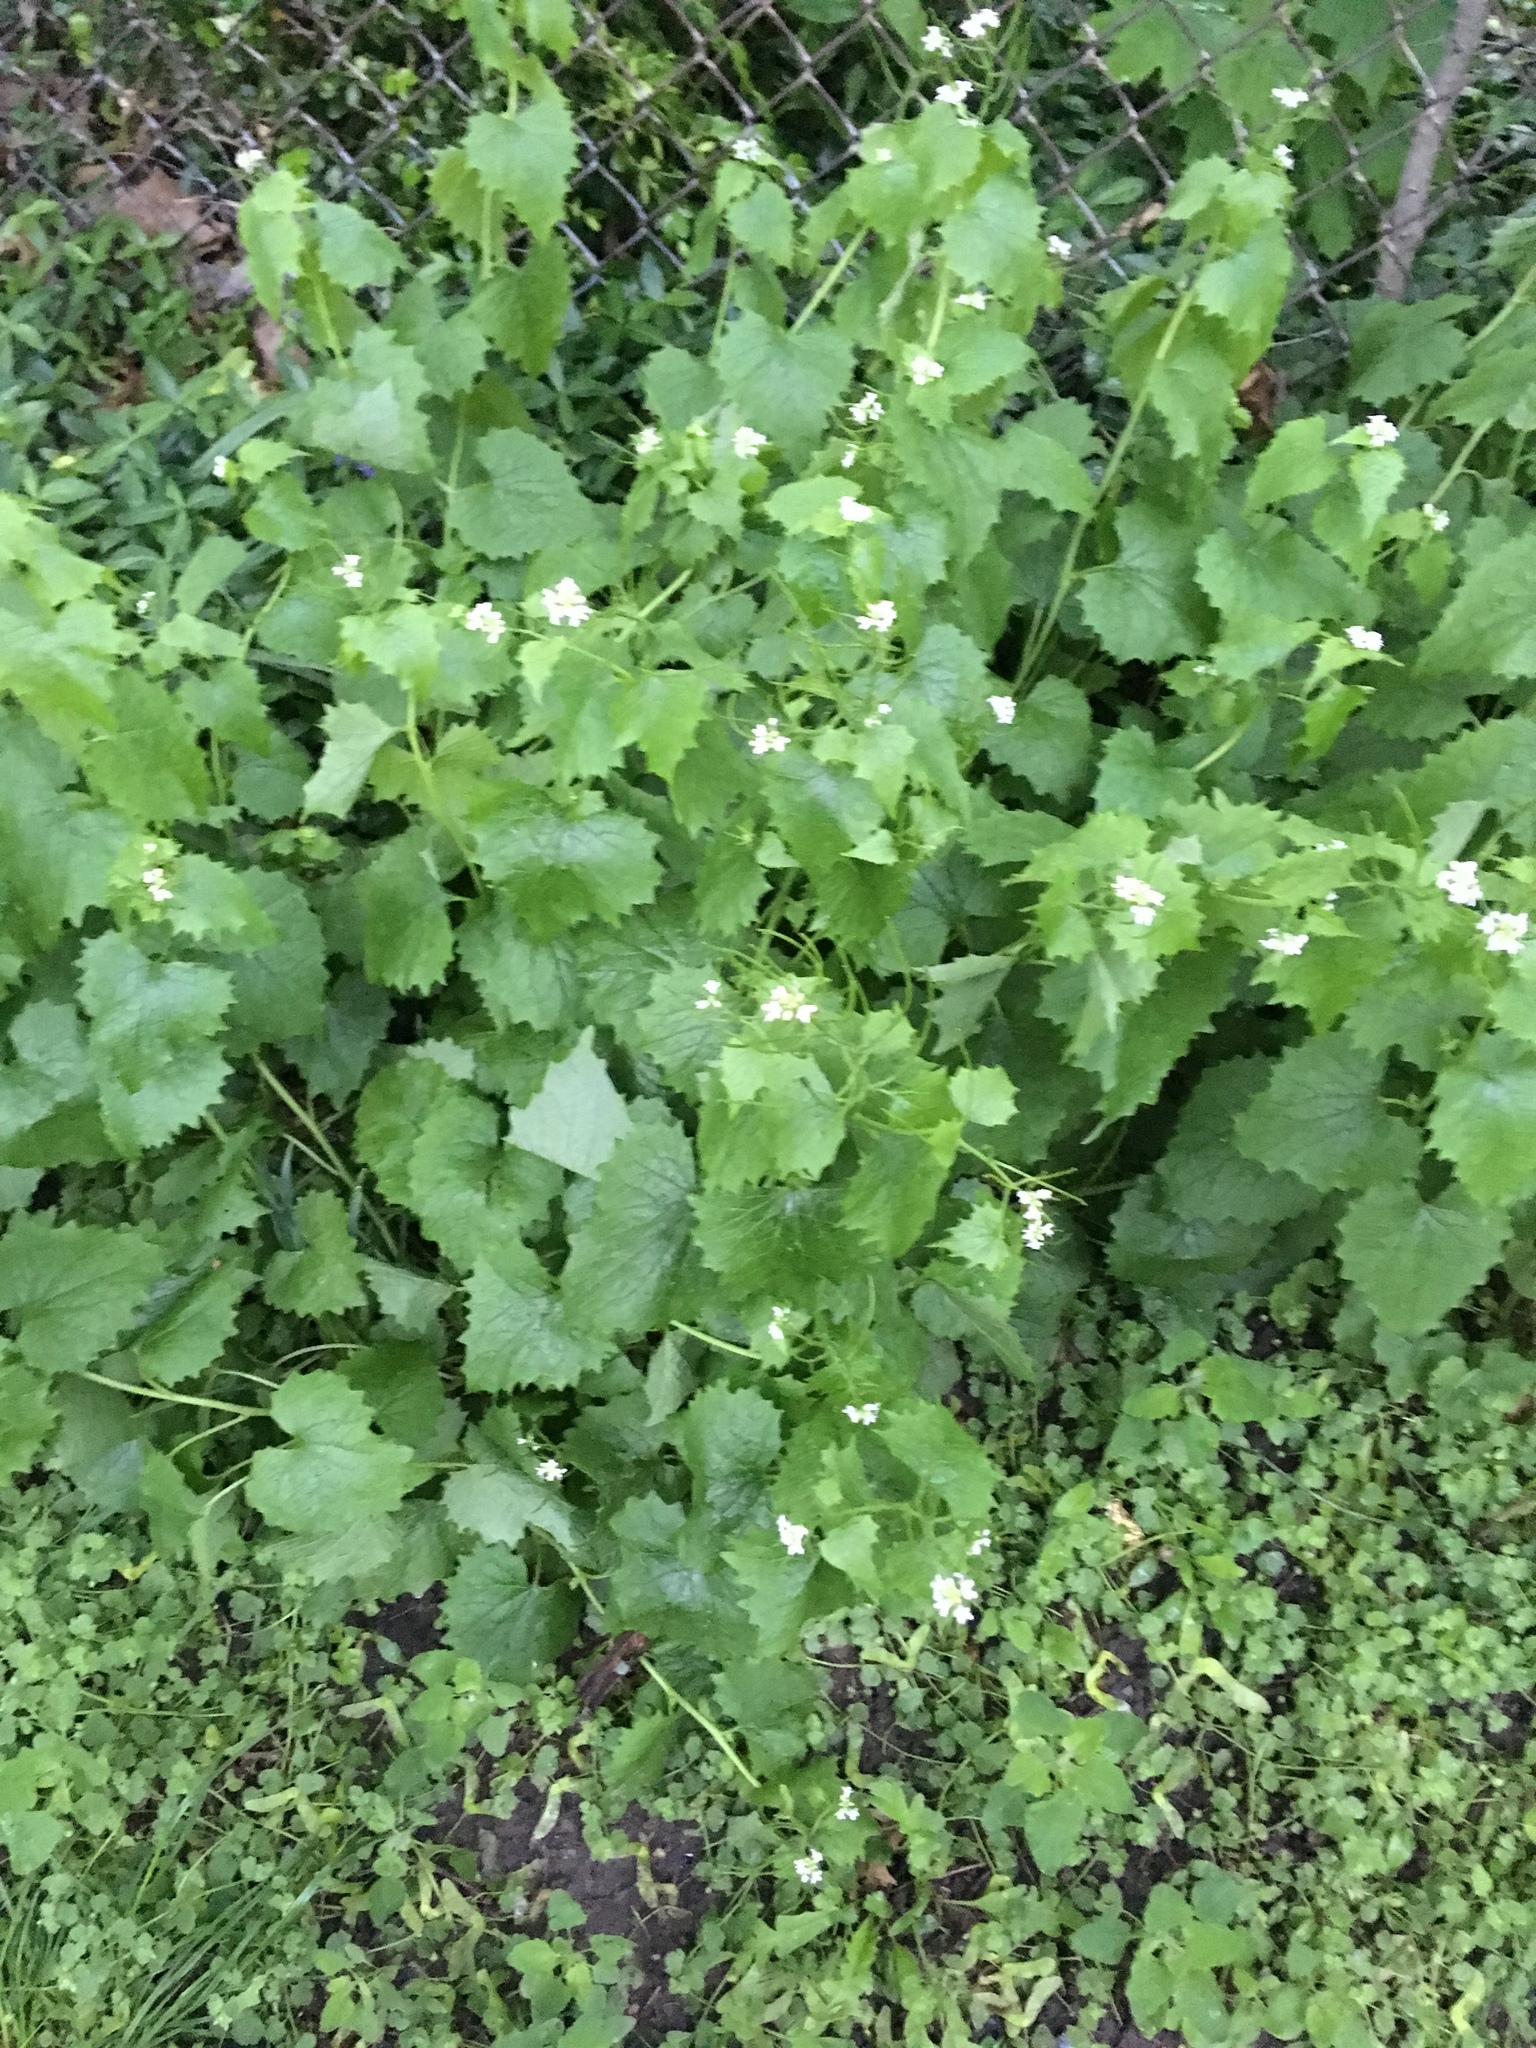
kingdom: Plantae
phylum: Tracheophyta
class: Magnoliopsida
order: Brassicales
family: Brassicaceae
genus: Alliaria
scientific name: Alliaria petiolata
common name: Garlic mustard
